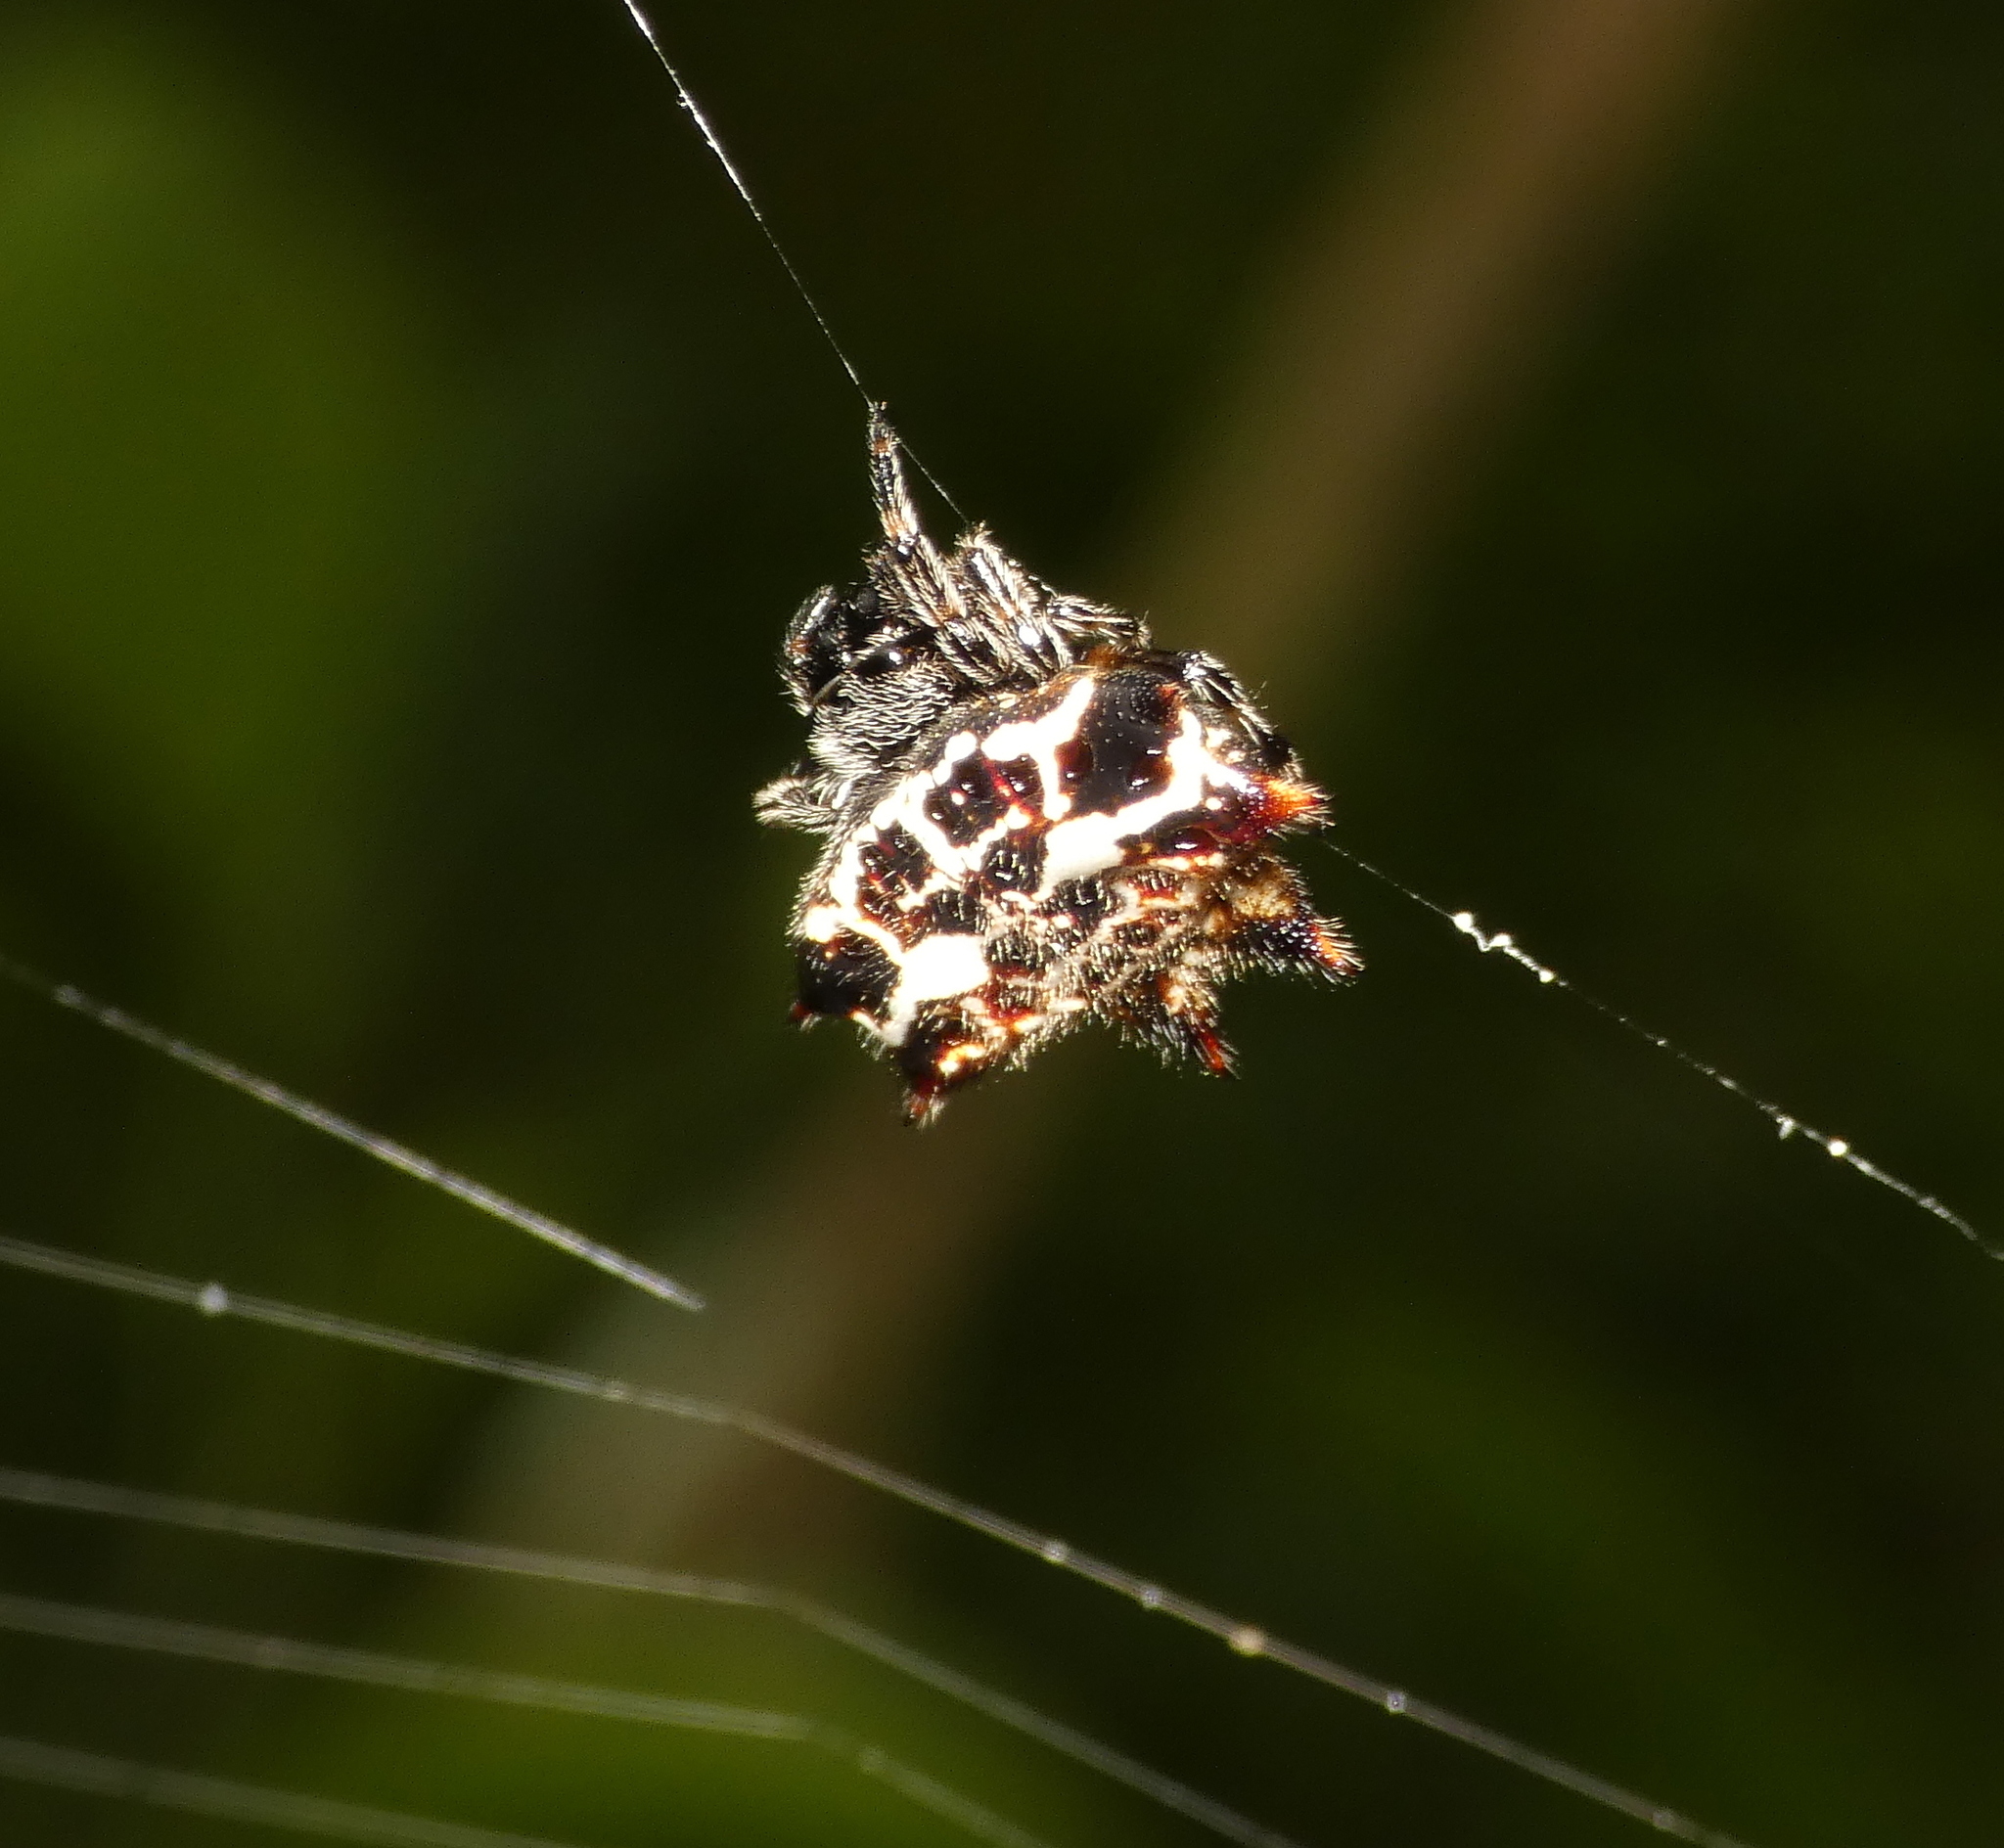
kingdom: Animalia
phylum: Arthropoda
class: Arachnida
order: Araneae
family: Araneidae
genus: Gasteracantha
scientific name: Gasteracantha cancriformis
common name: Orb weavers
